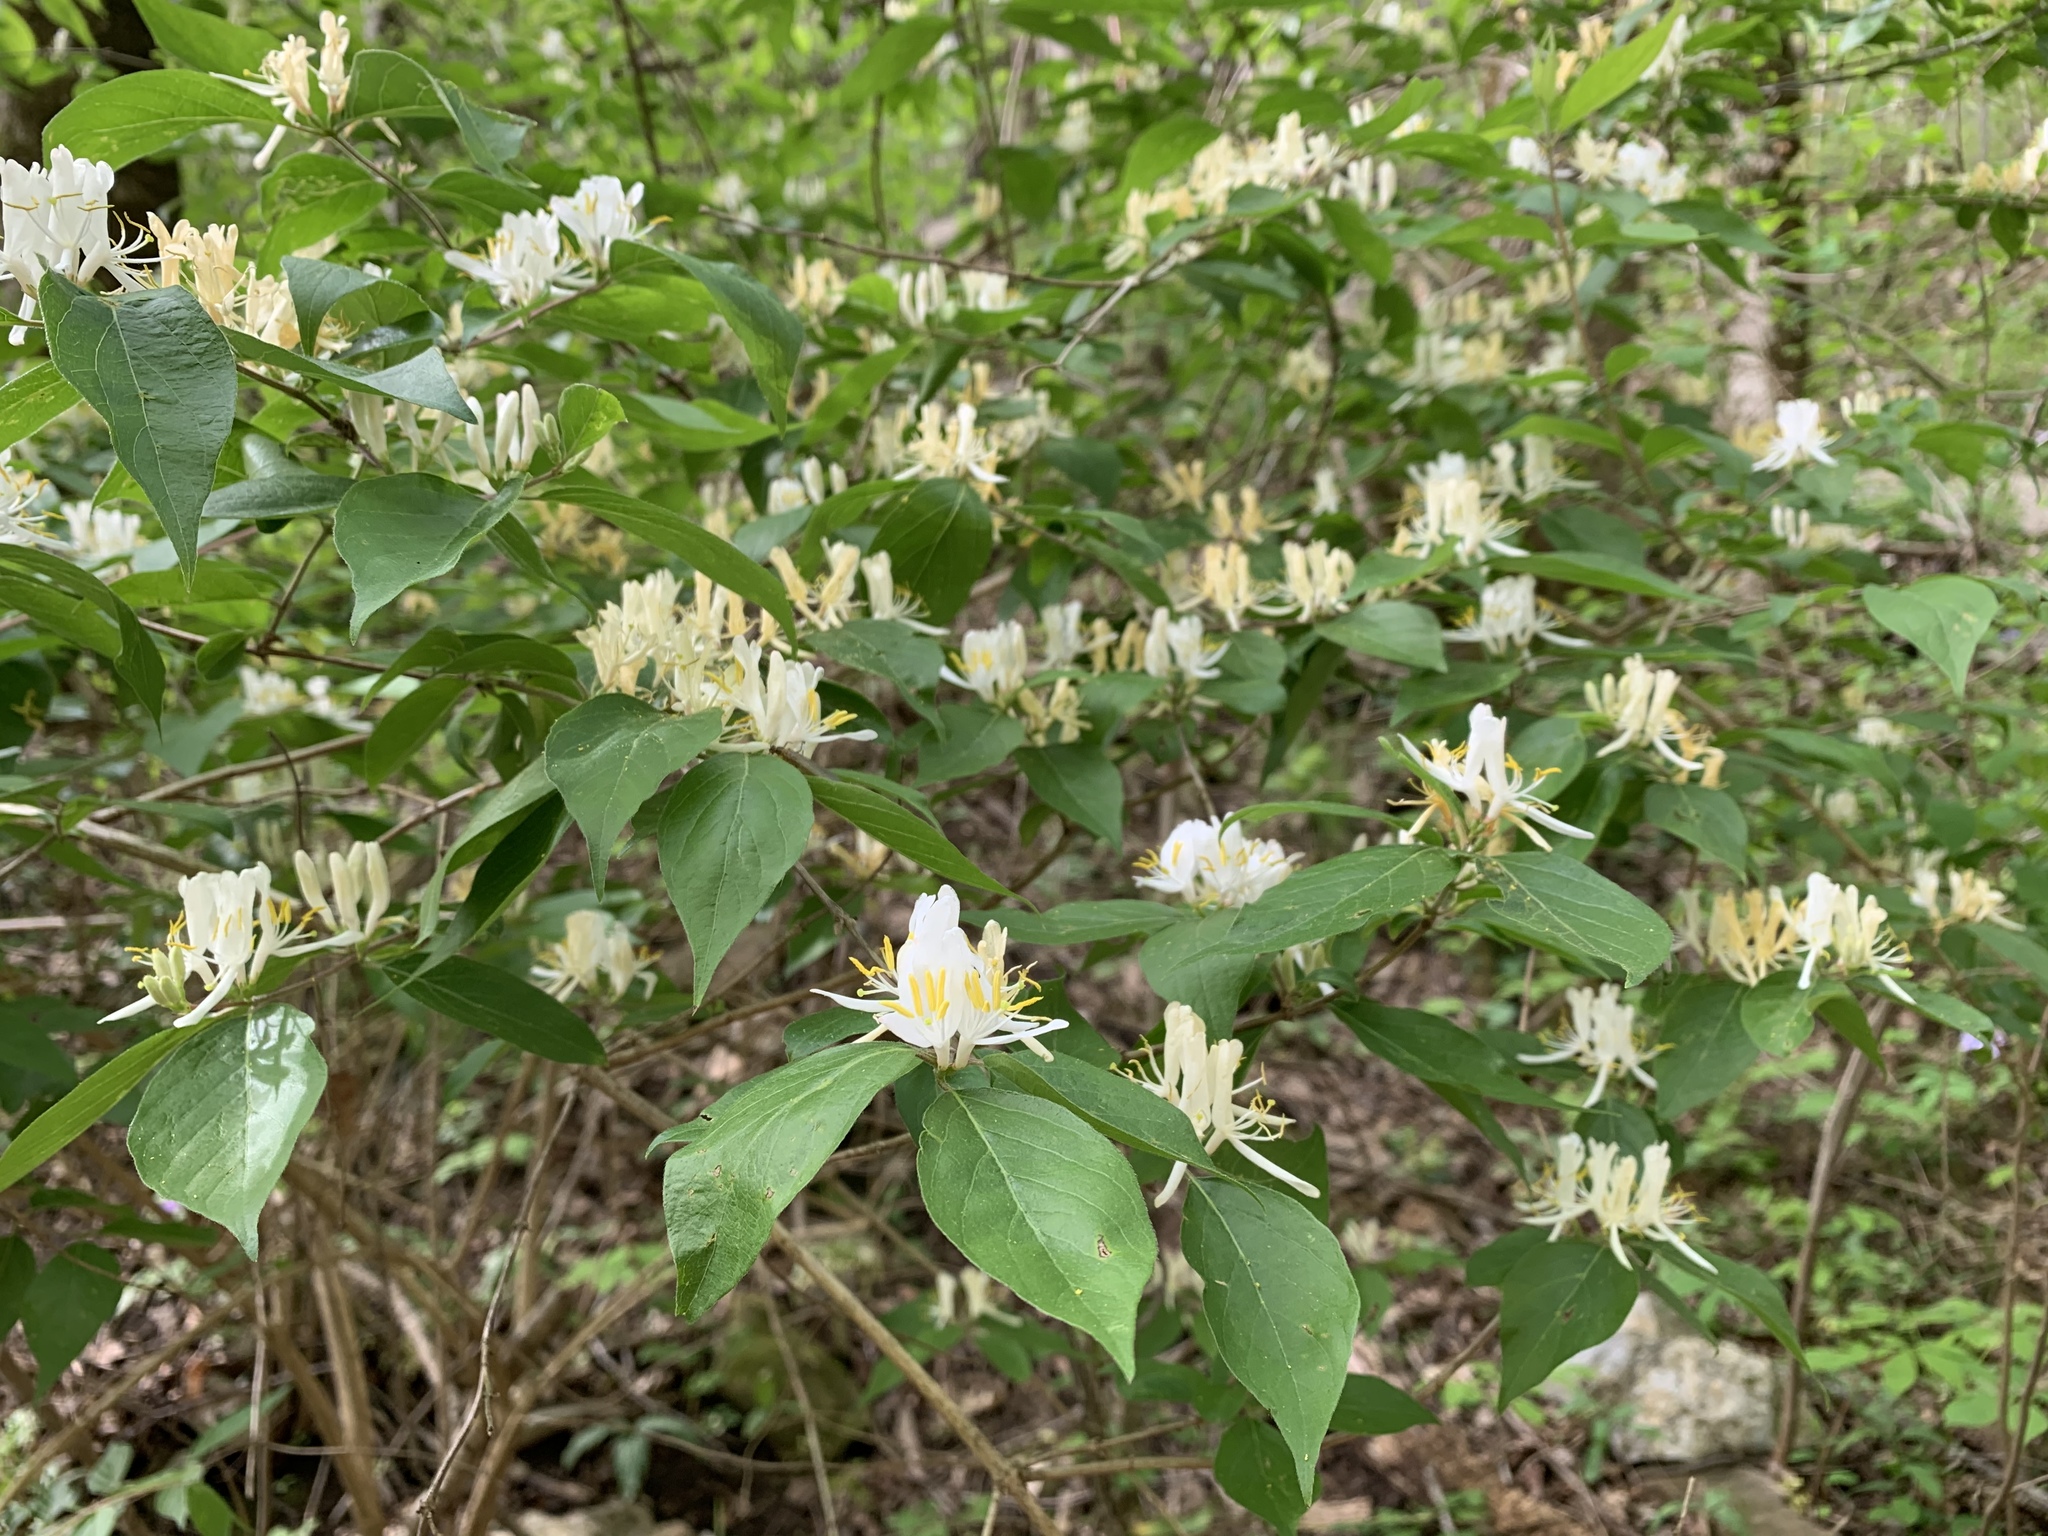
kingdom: Plantae
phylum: Tracheophyta
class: Magnoliopsida
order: Dipsacales
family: Caprifoliaceae
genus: Lonicera
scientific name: Lonicera maackii
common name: Amur honeysuckle
